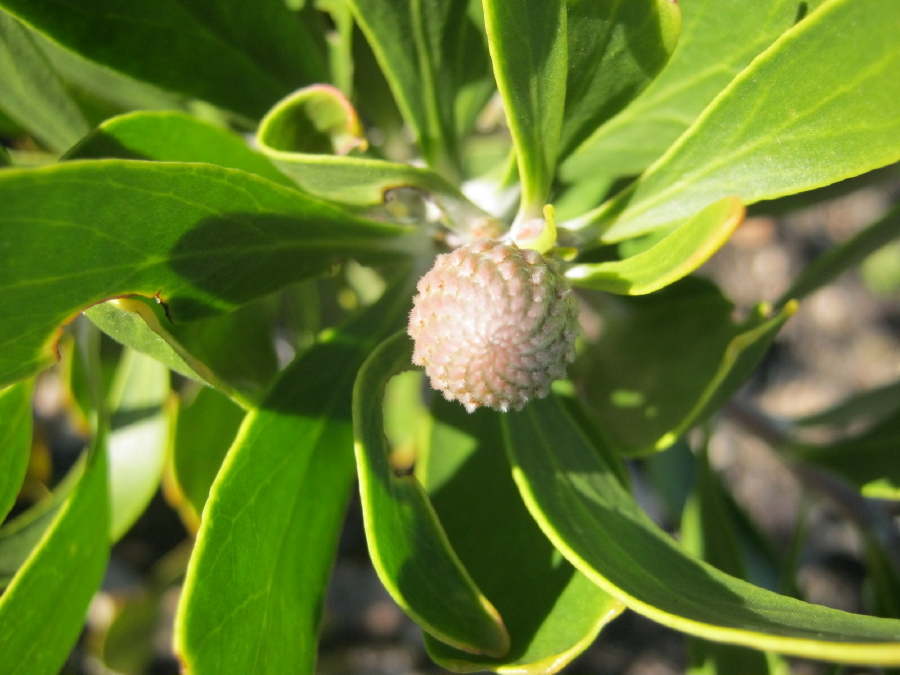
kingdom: Plantae
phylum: Tracheophyta
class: Magnoliopsida
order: Proteales
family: Proteaceae
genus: Leucospermum
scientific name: Leucospermum cuneiforme
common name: Common pincushion
